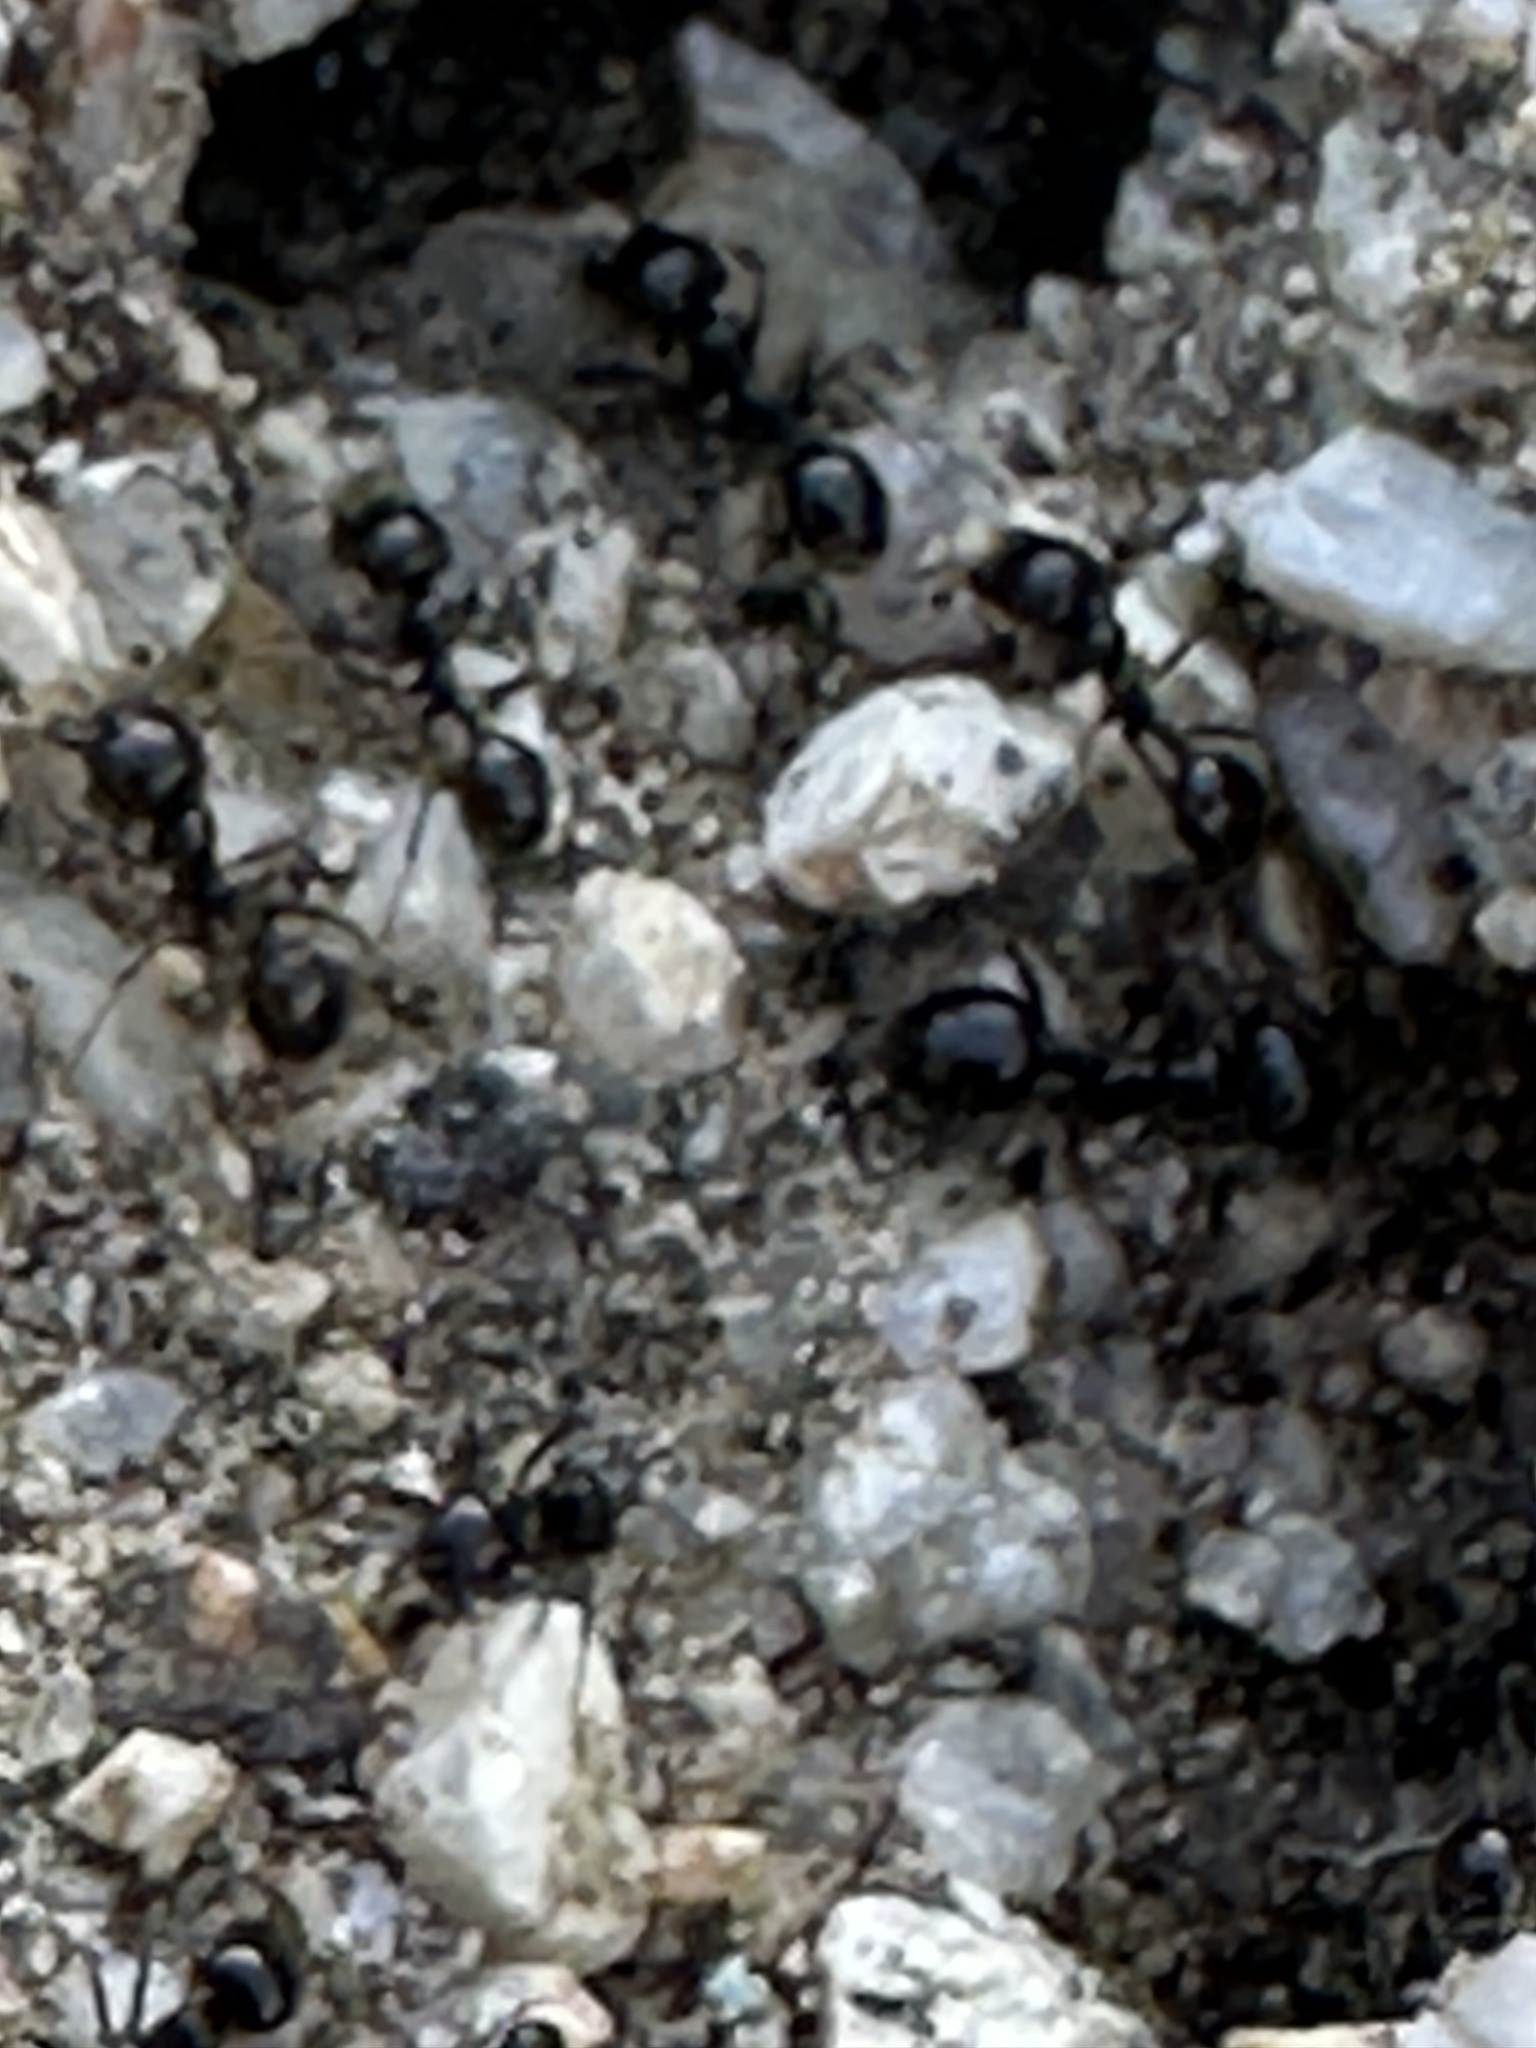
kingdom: Animalia
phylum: Arthropoda
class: Insecta
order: Hymenoptera
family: Formicidae
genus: Messor
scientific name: Messor pergandei
